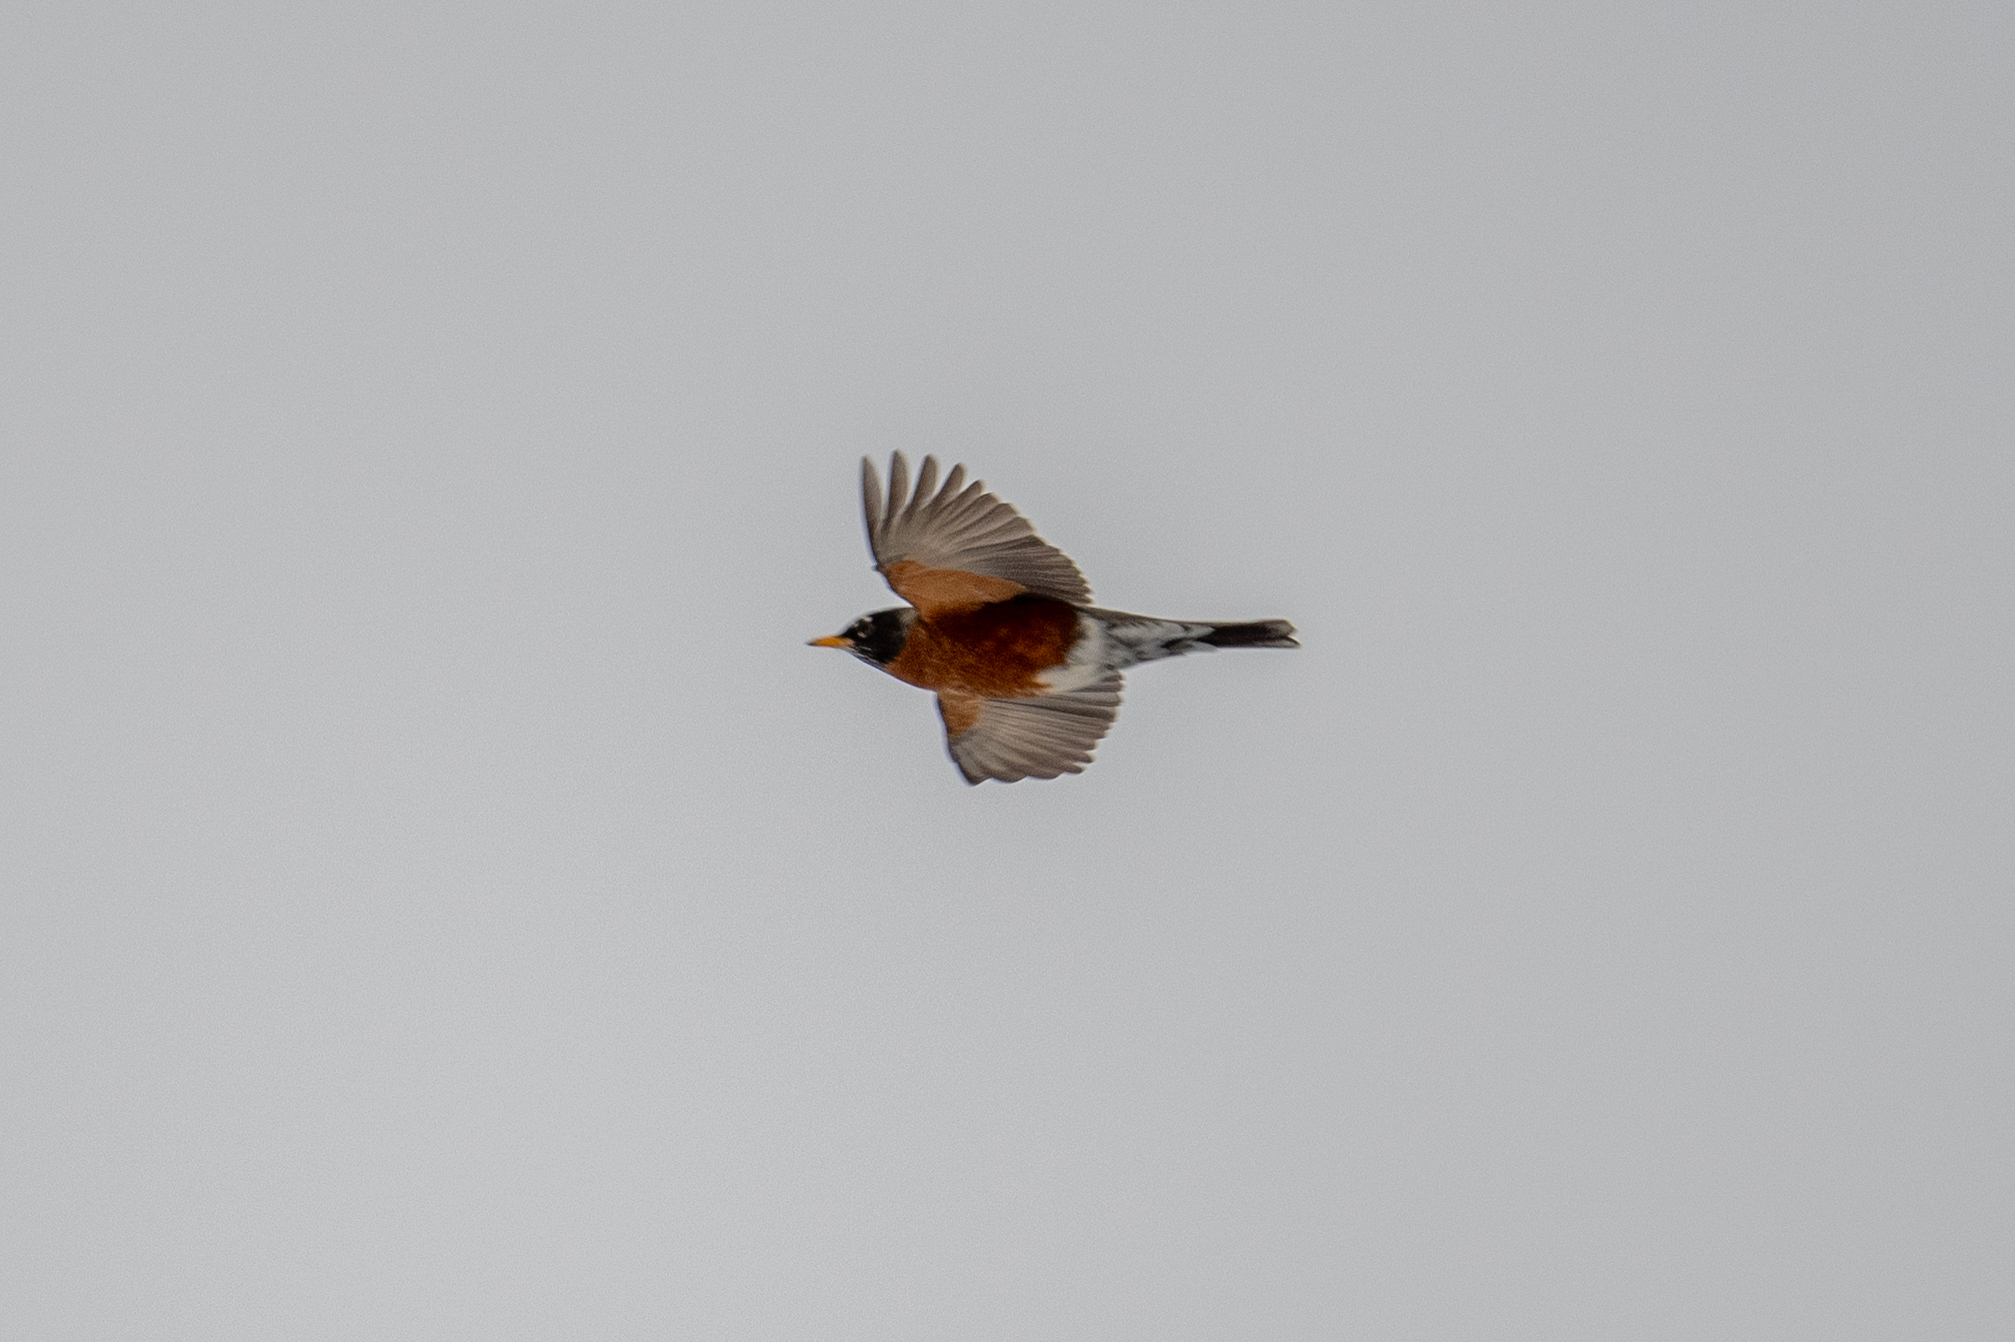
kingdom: Animalia
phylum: Chordata
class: Aves
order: Passeriformes
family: Turdidae
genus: Turdus
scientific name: Turdus migratorius
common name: American robin
